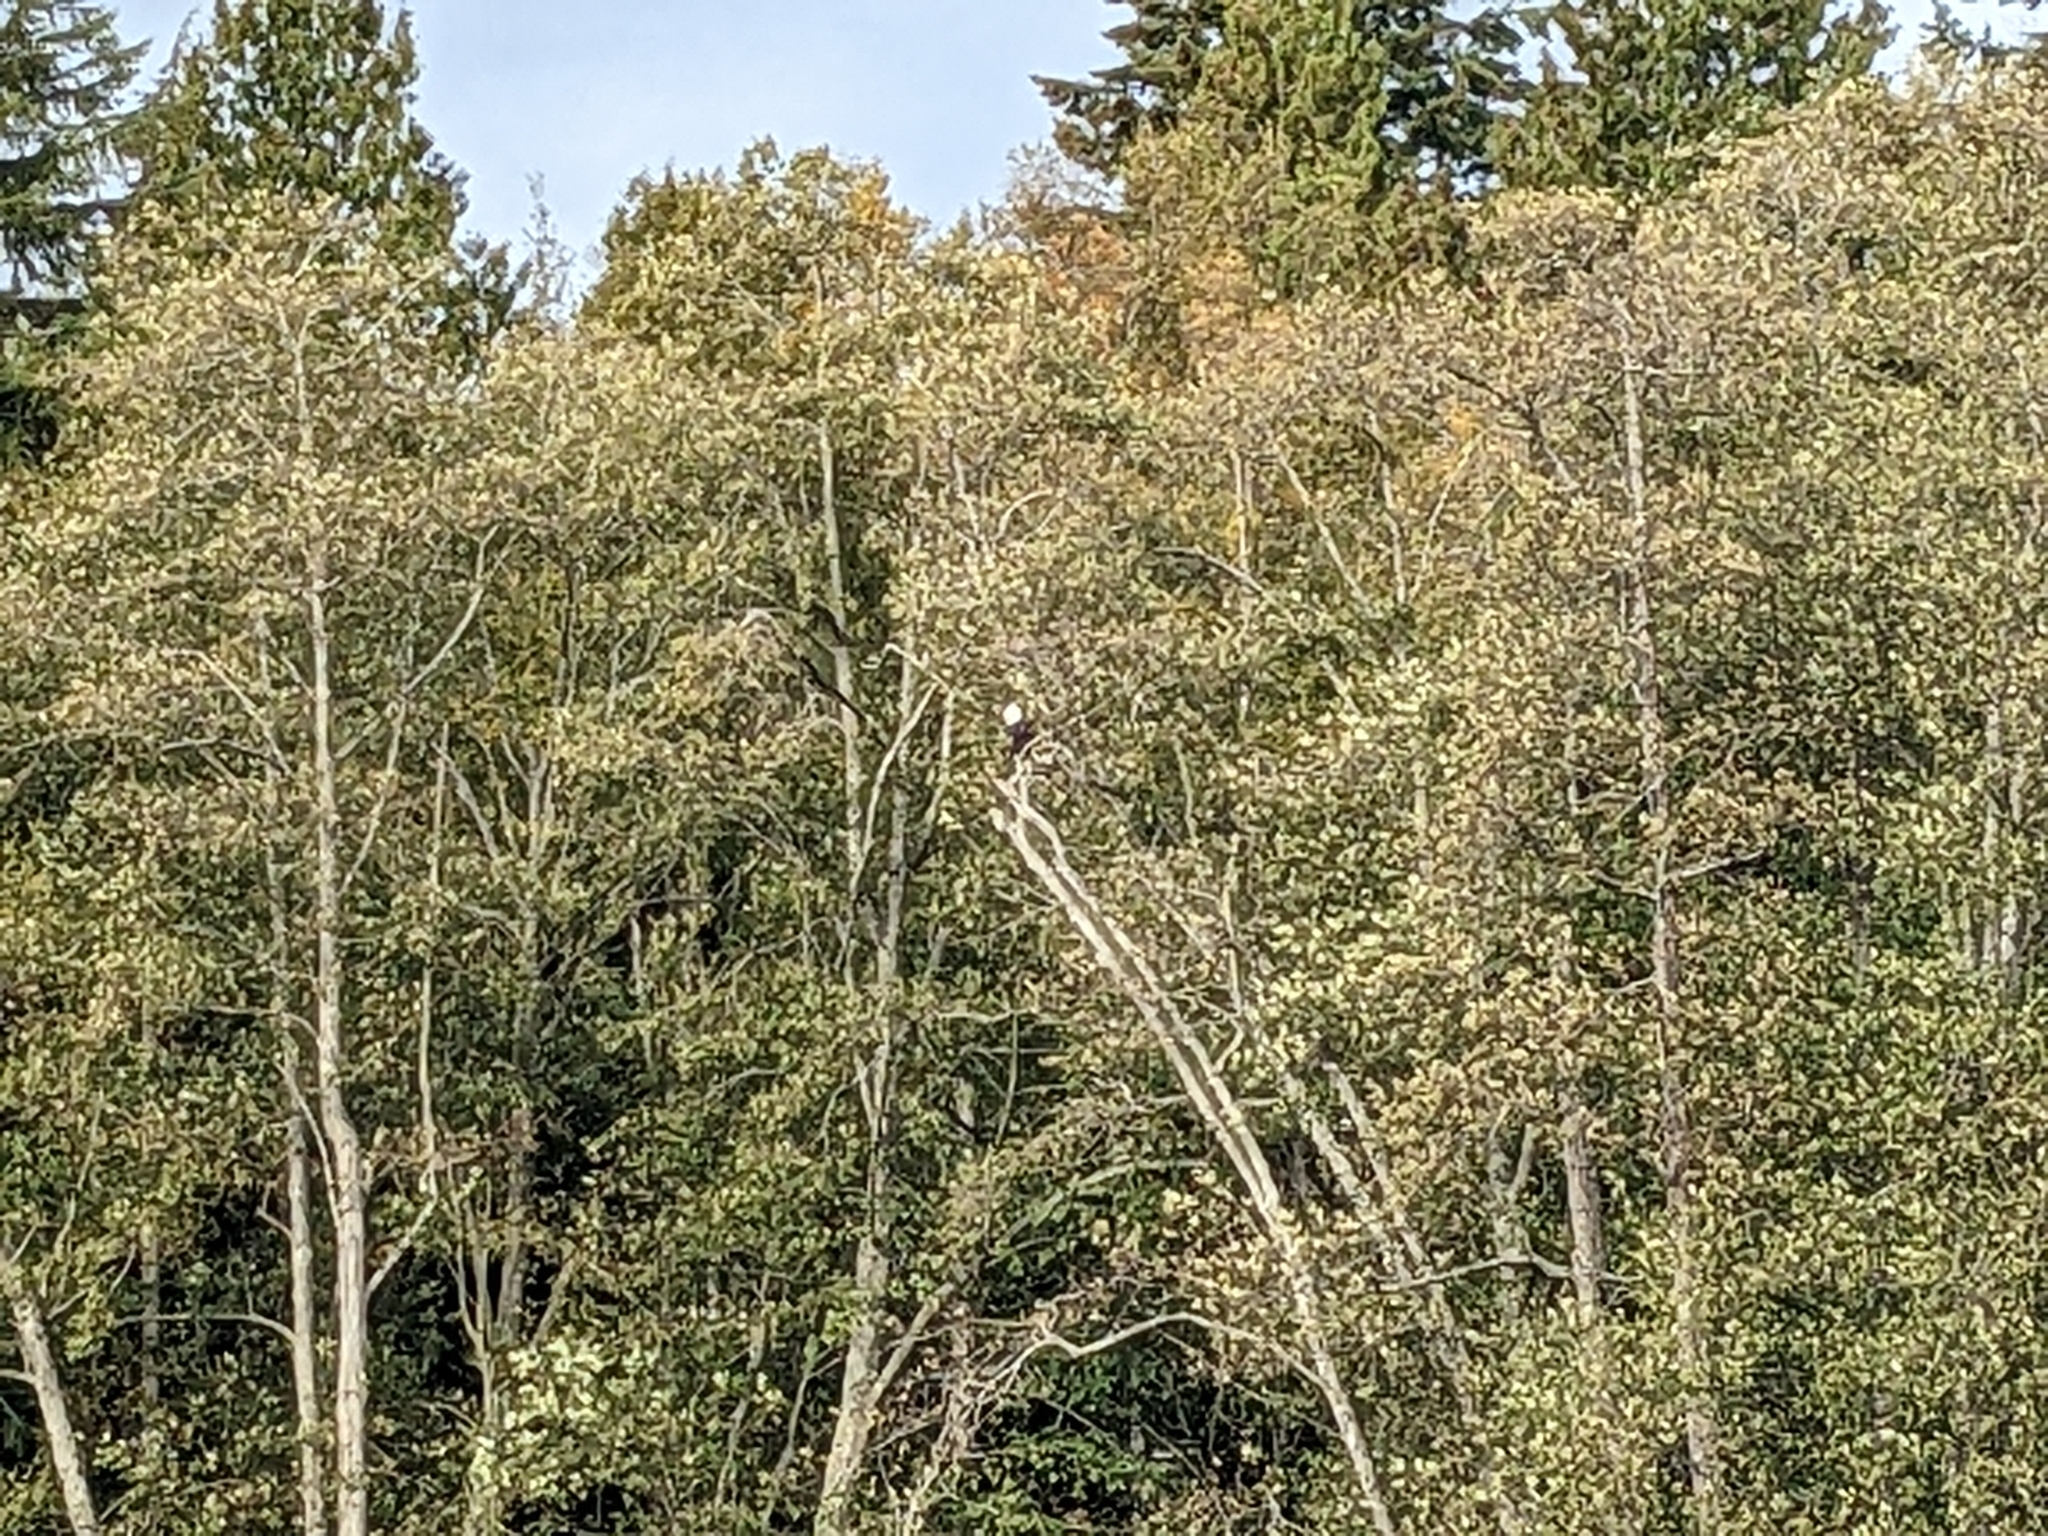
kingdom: Animalia
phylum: Chordata
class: Aves
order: Accipitriformes
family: Accipitridae
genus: Haliaeetus
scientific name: Haliaeetus leucocephalus
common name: Bald eagle
